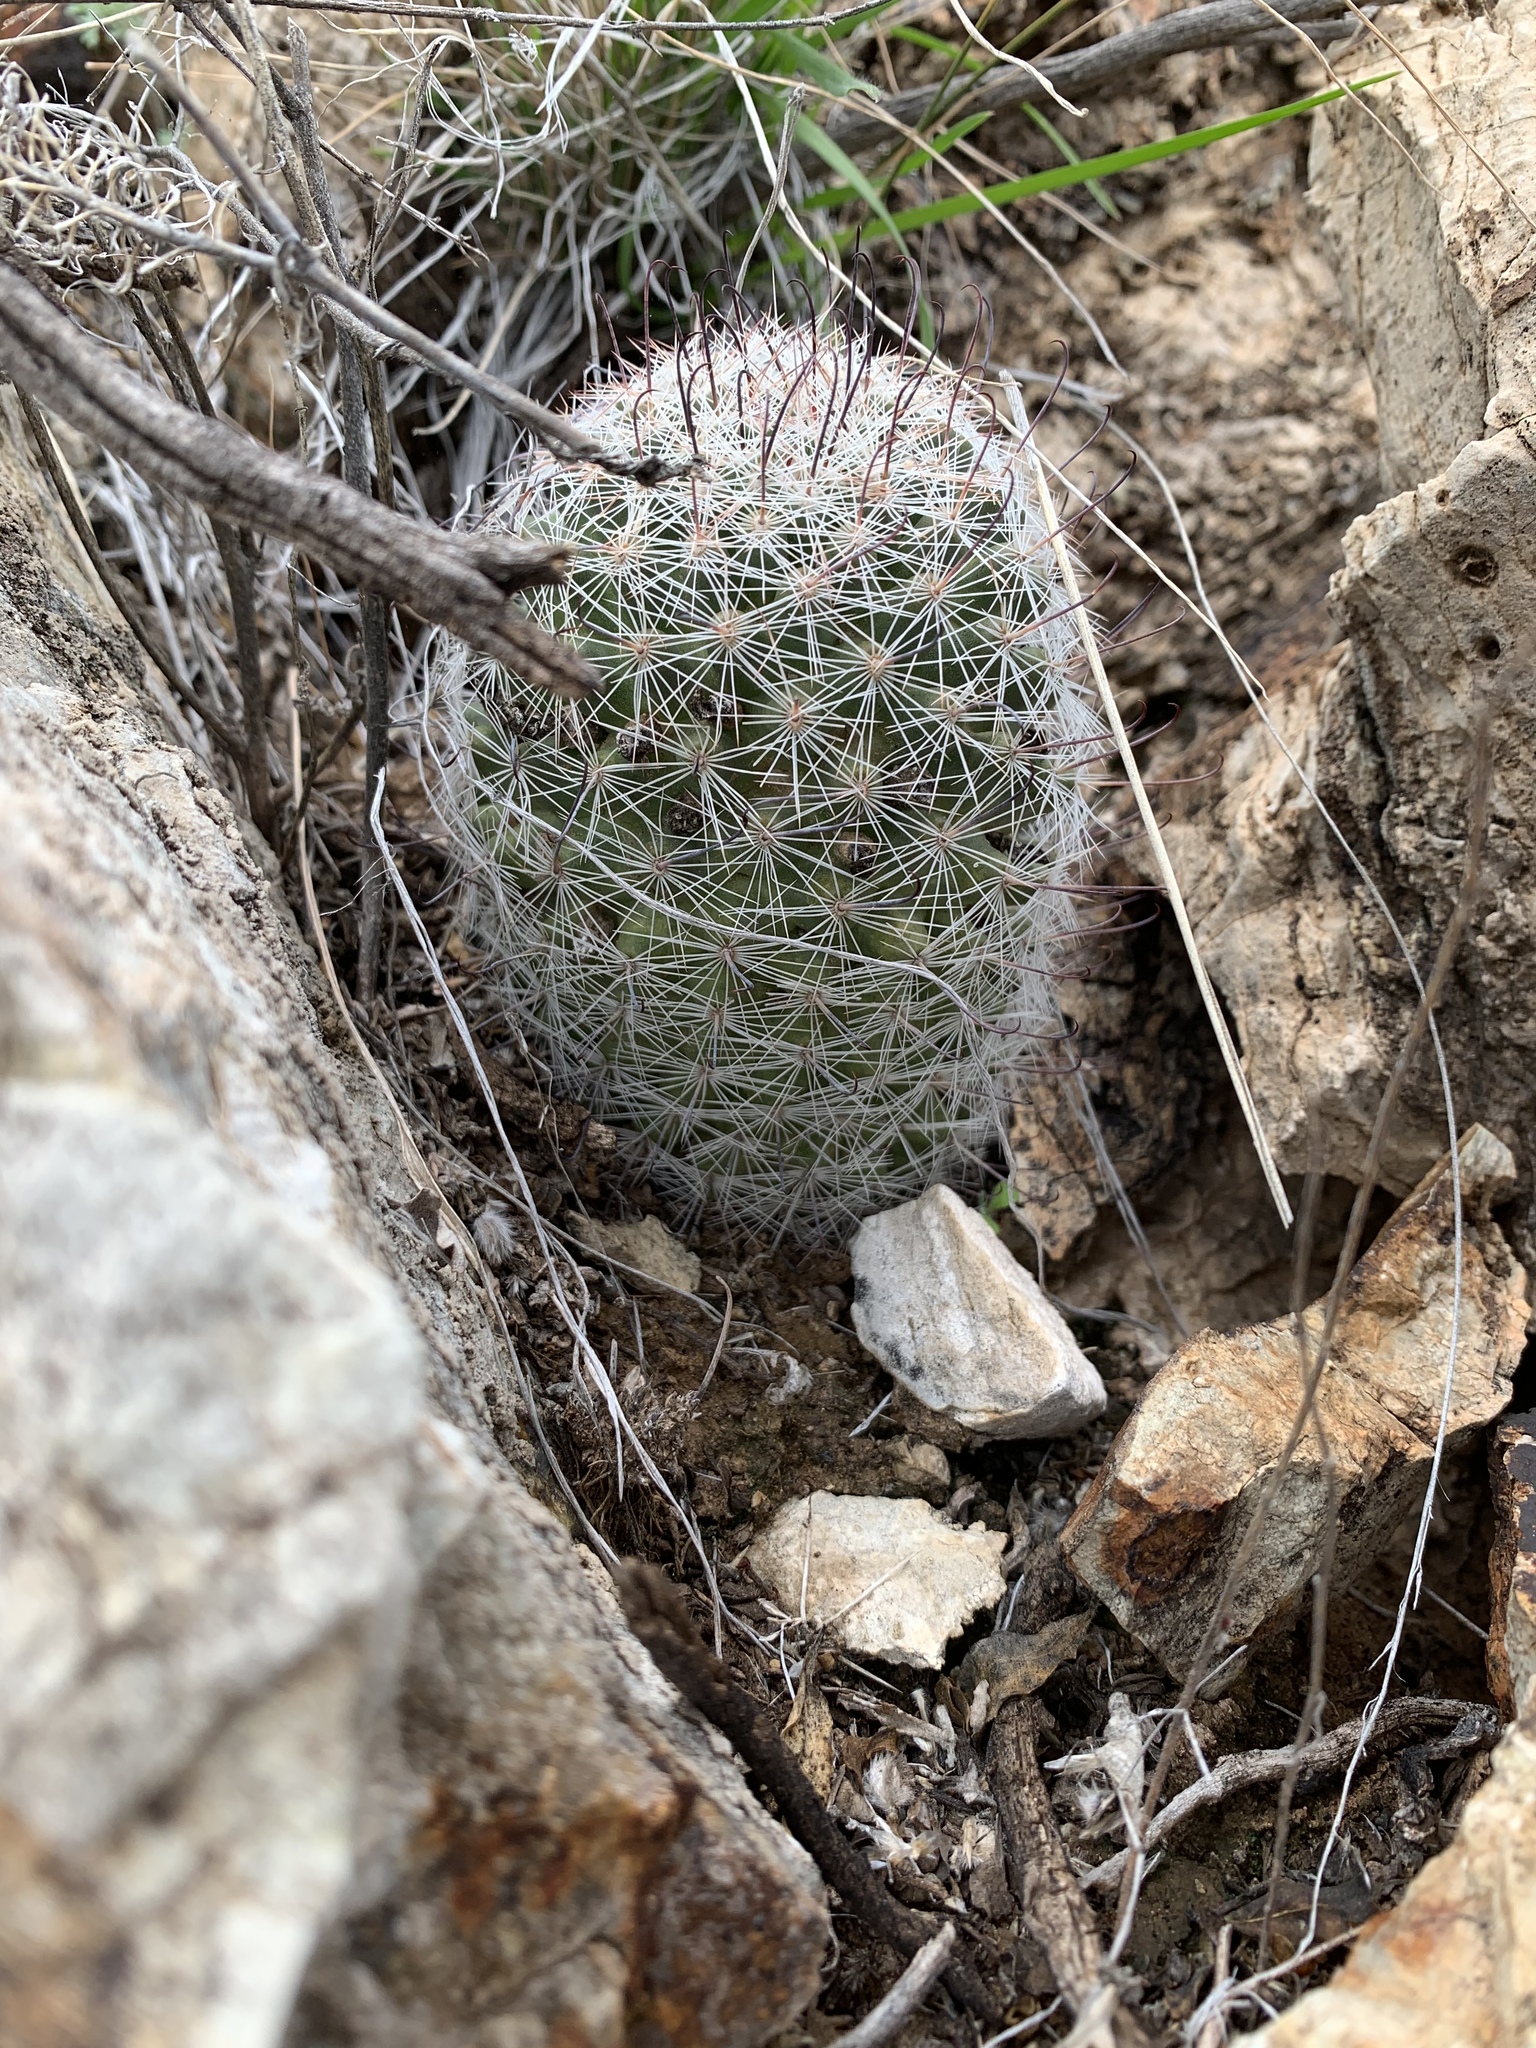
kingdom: Plantae
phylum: Tracheophyta
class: Magnoliopsida
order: Caryophyllales
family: Cactaceae
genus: Cochemiea
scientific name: Cochemiea grahamii
